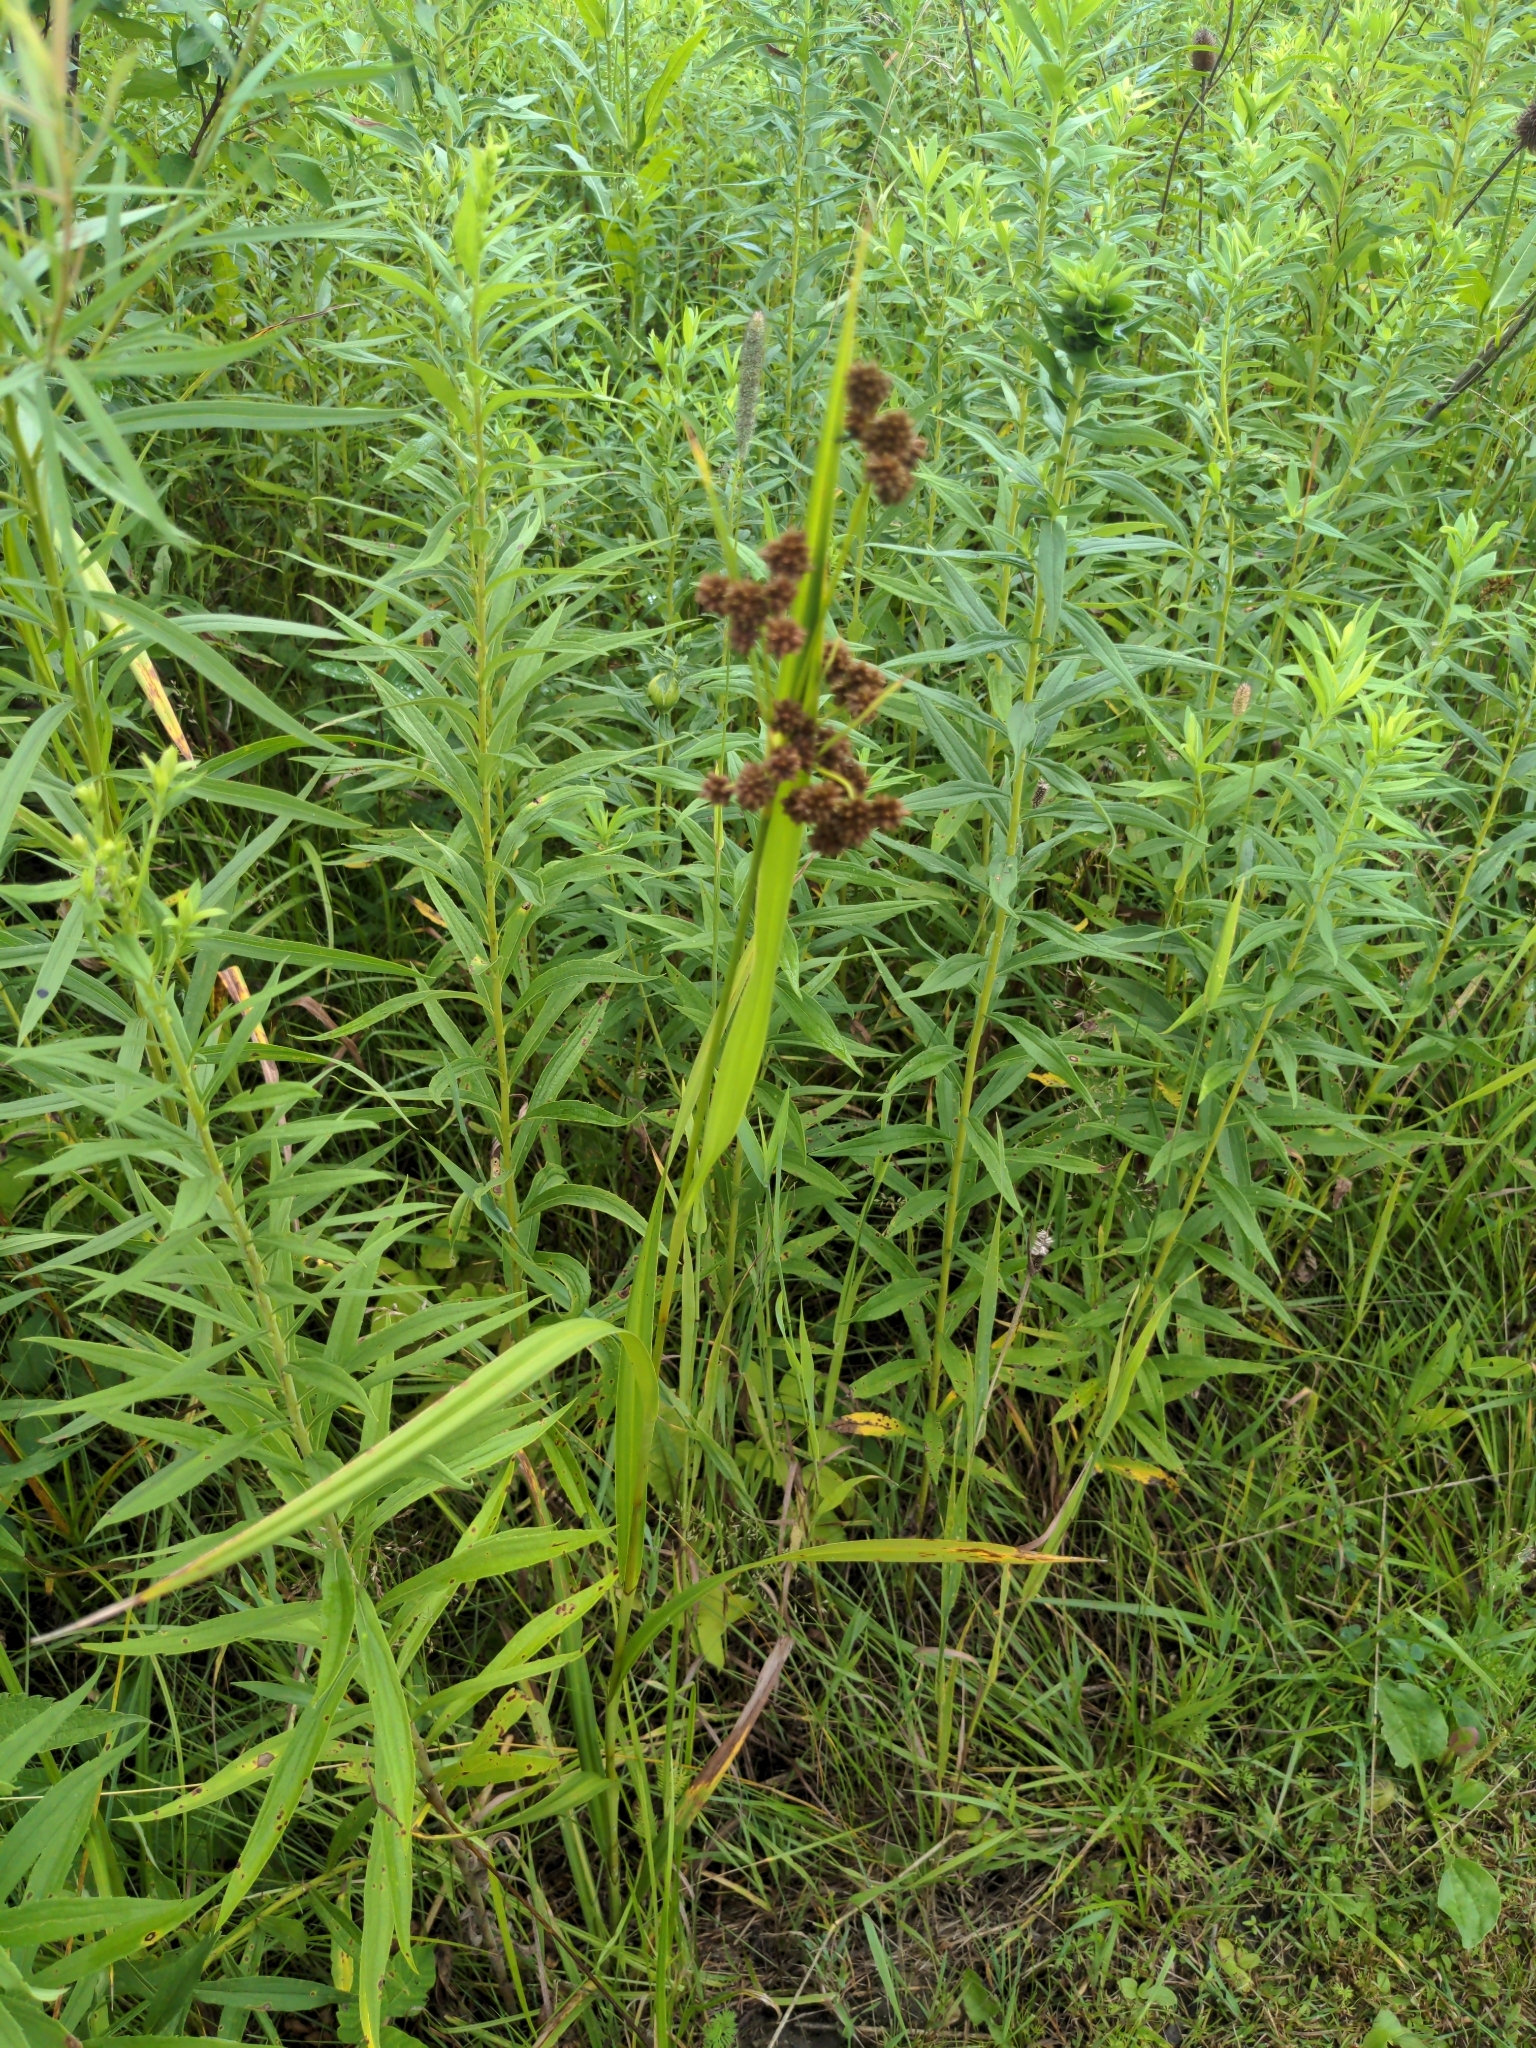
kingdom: Plantae
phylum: Tracheophyta
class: Liliopsida
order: Poales
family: Cyperaceae
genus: Scirpus
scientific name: Scirpus atrovirens
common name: Black bulrush
